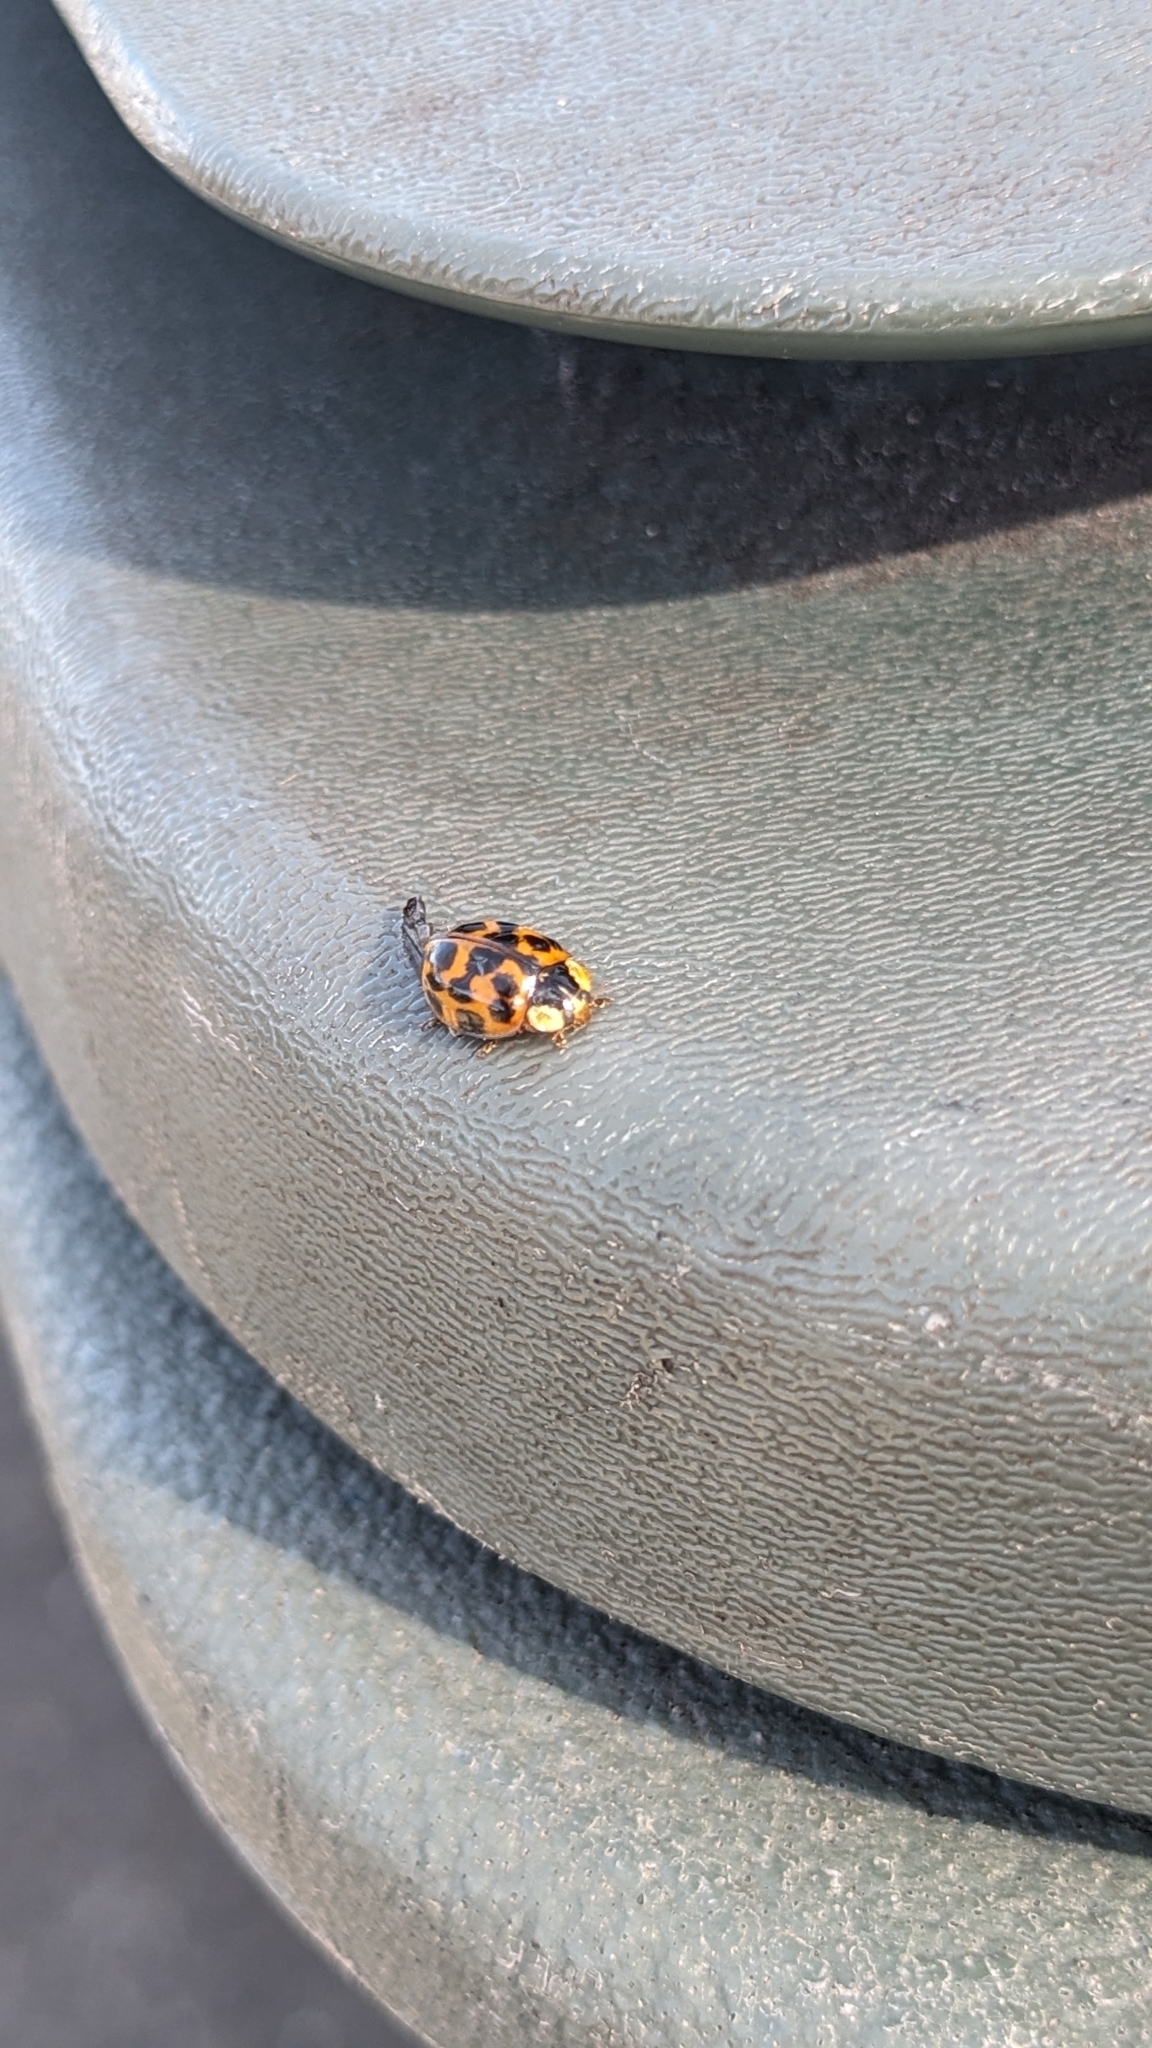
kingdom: Animalia
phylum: Arthropoda
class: Insecta
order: Coleoptera
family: Coccinellidae
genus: Harmonia
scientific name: Harmonia axyridis
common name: Harlequin ladybird
